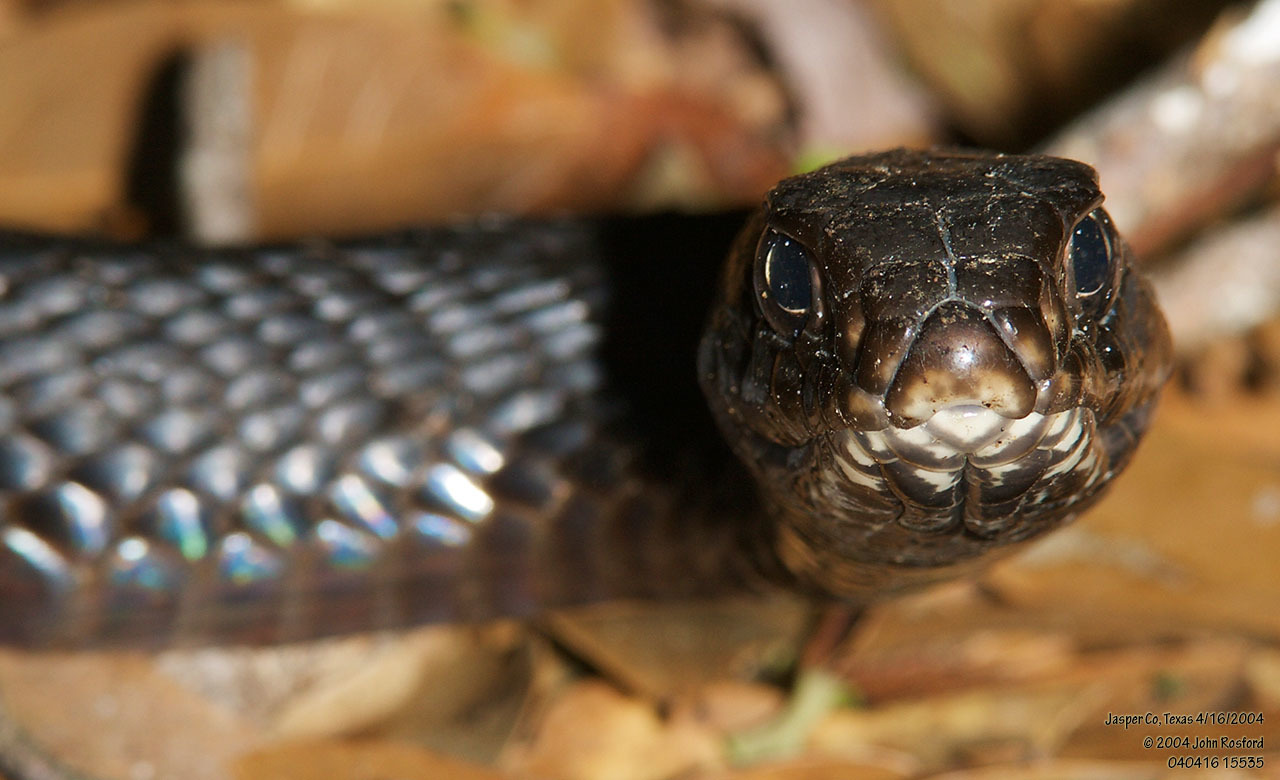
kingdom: Animalia
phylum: Chordata
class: Squamata
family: Colubridae
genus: Masticophis
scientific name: Masticophis flagellum
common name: Coachwhip
